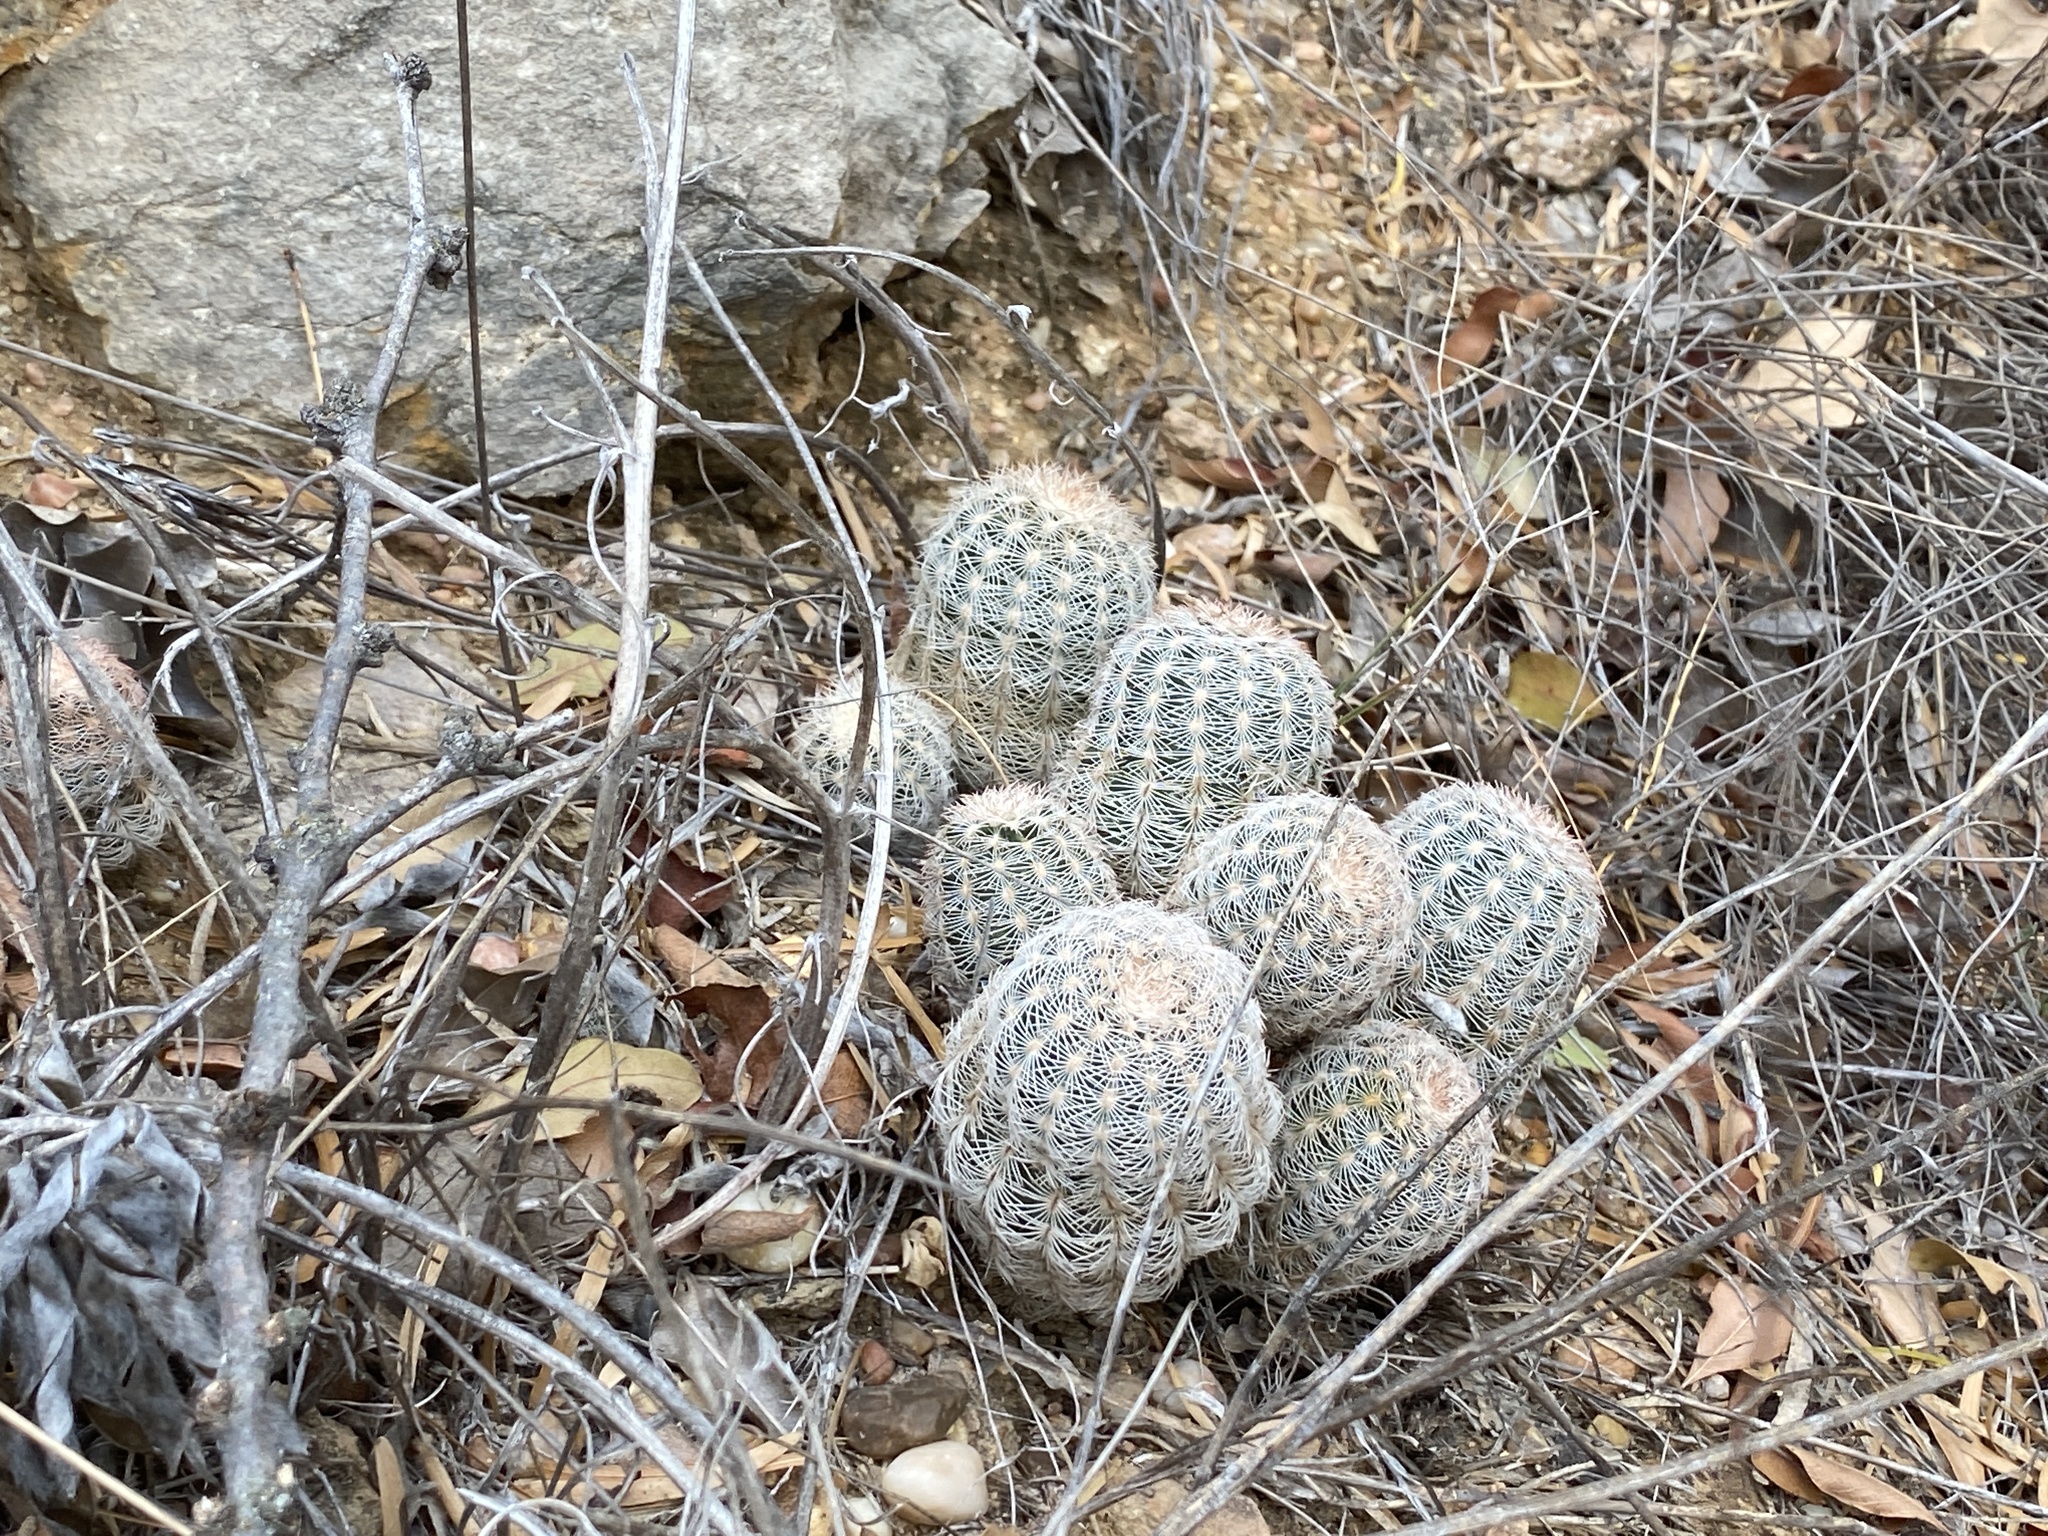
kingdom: Plantae
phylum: Tracheophyta
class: Magnoliopsida
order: Caryophyllales
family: Cactaceae
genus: Echinocereus
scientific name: Echinocereus reichenbachii
